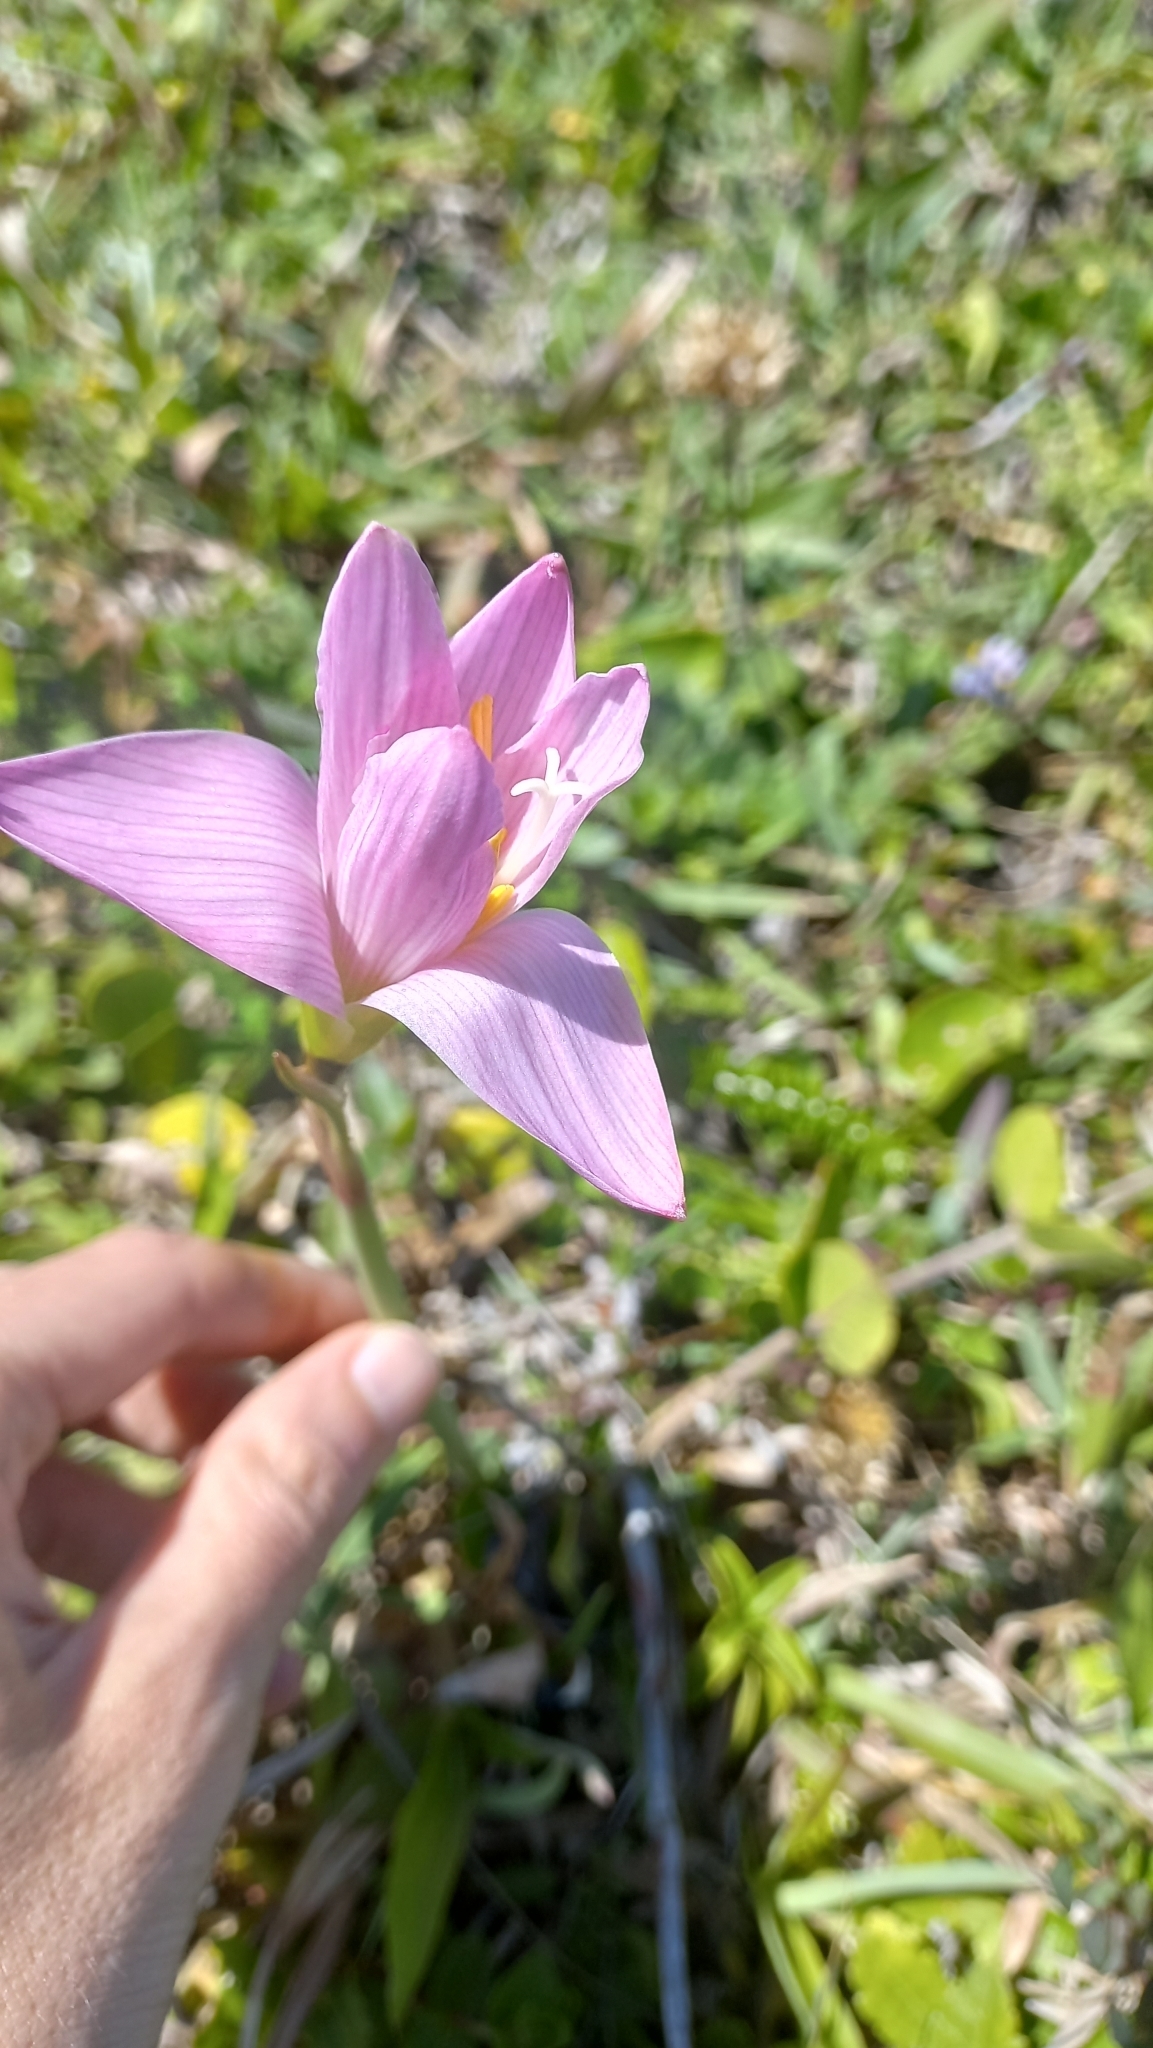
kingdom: Plantae
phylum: Tracheophyta
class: Liliopsida
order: Asparagales
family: Amaryllidaceae
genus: Zephyranthes
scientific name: Zephyranthes robusta
